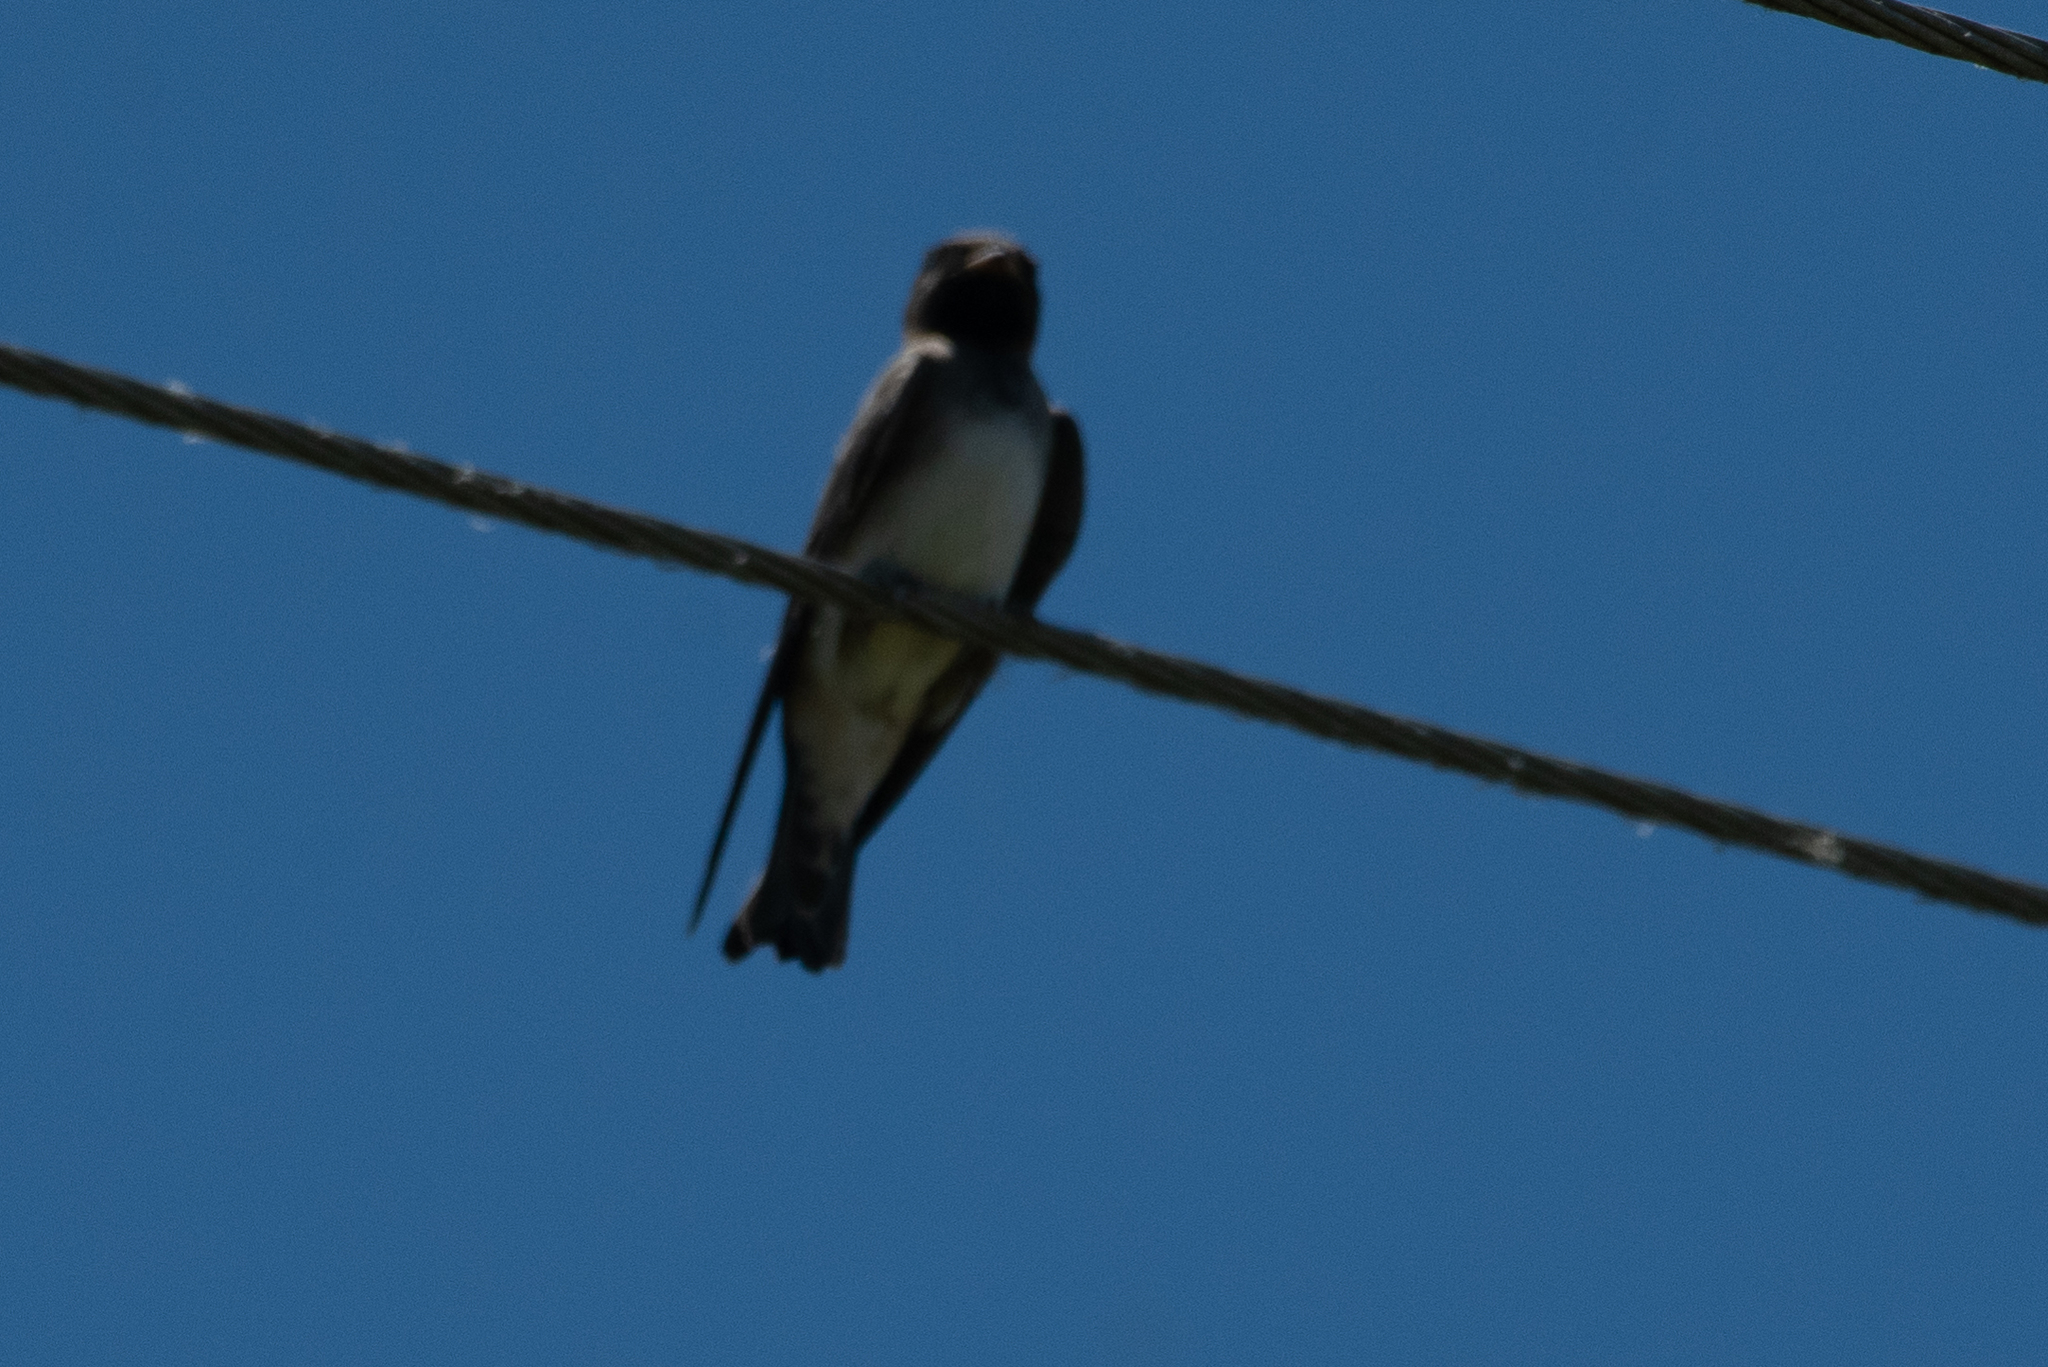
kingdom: Animalia
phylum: Chordata
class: Aves
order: Passeriformes
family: Hirundinidae
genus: Petrochelidon
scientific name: Petrochelidon pyrrhonota
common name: American cliff swallow
